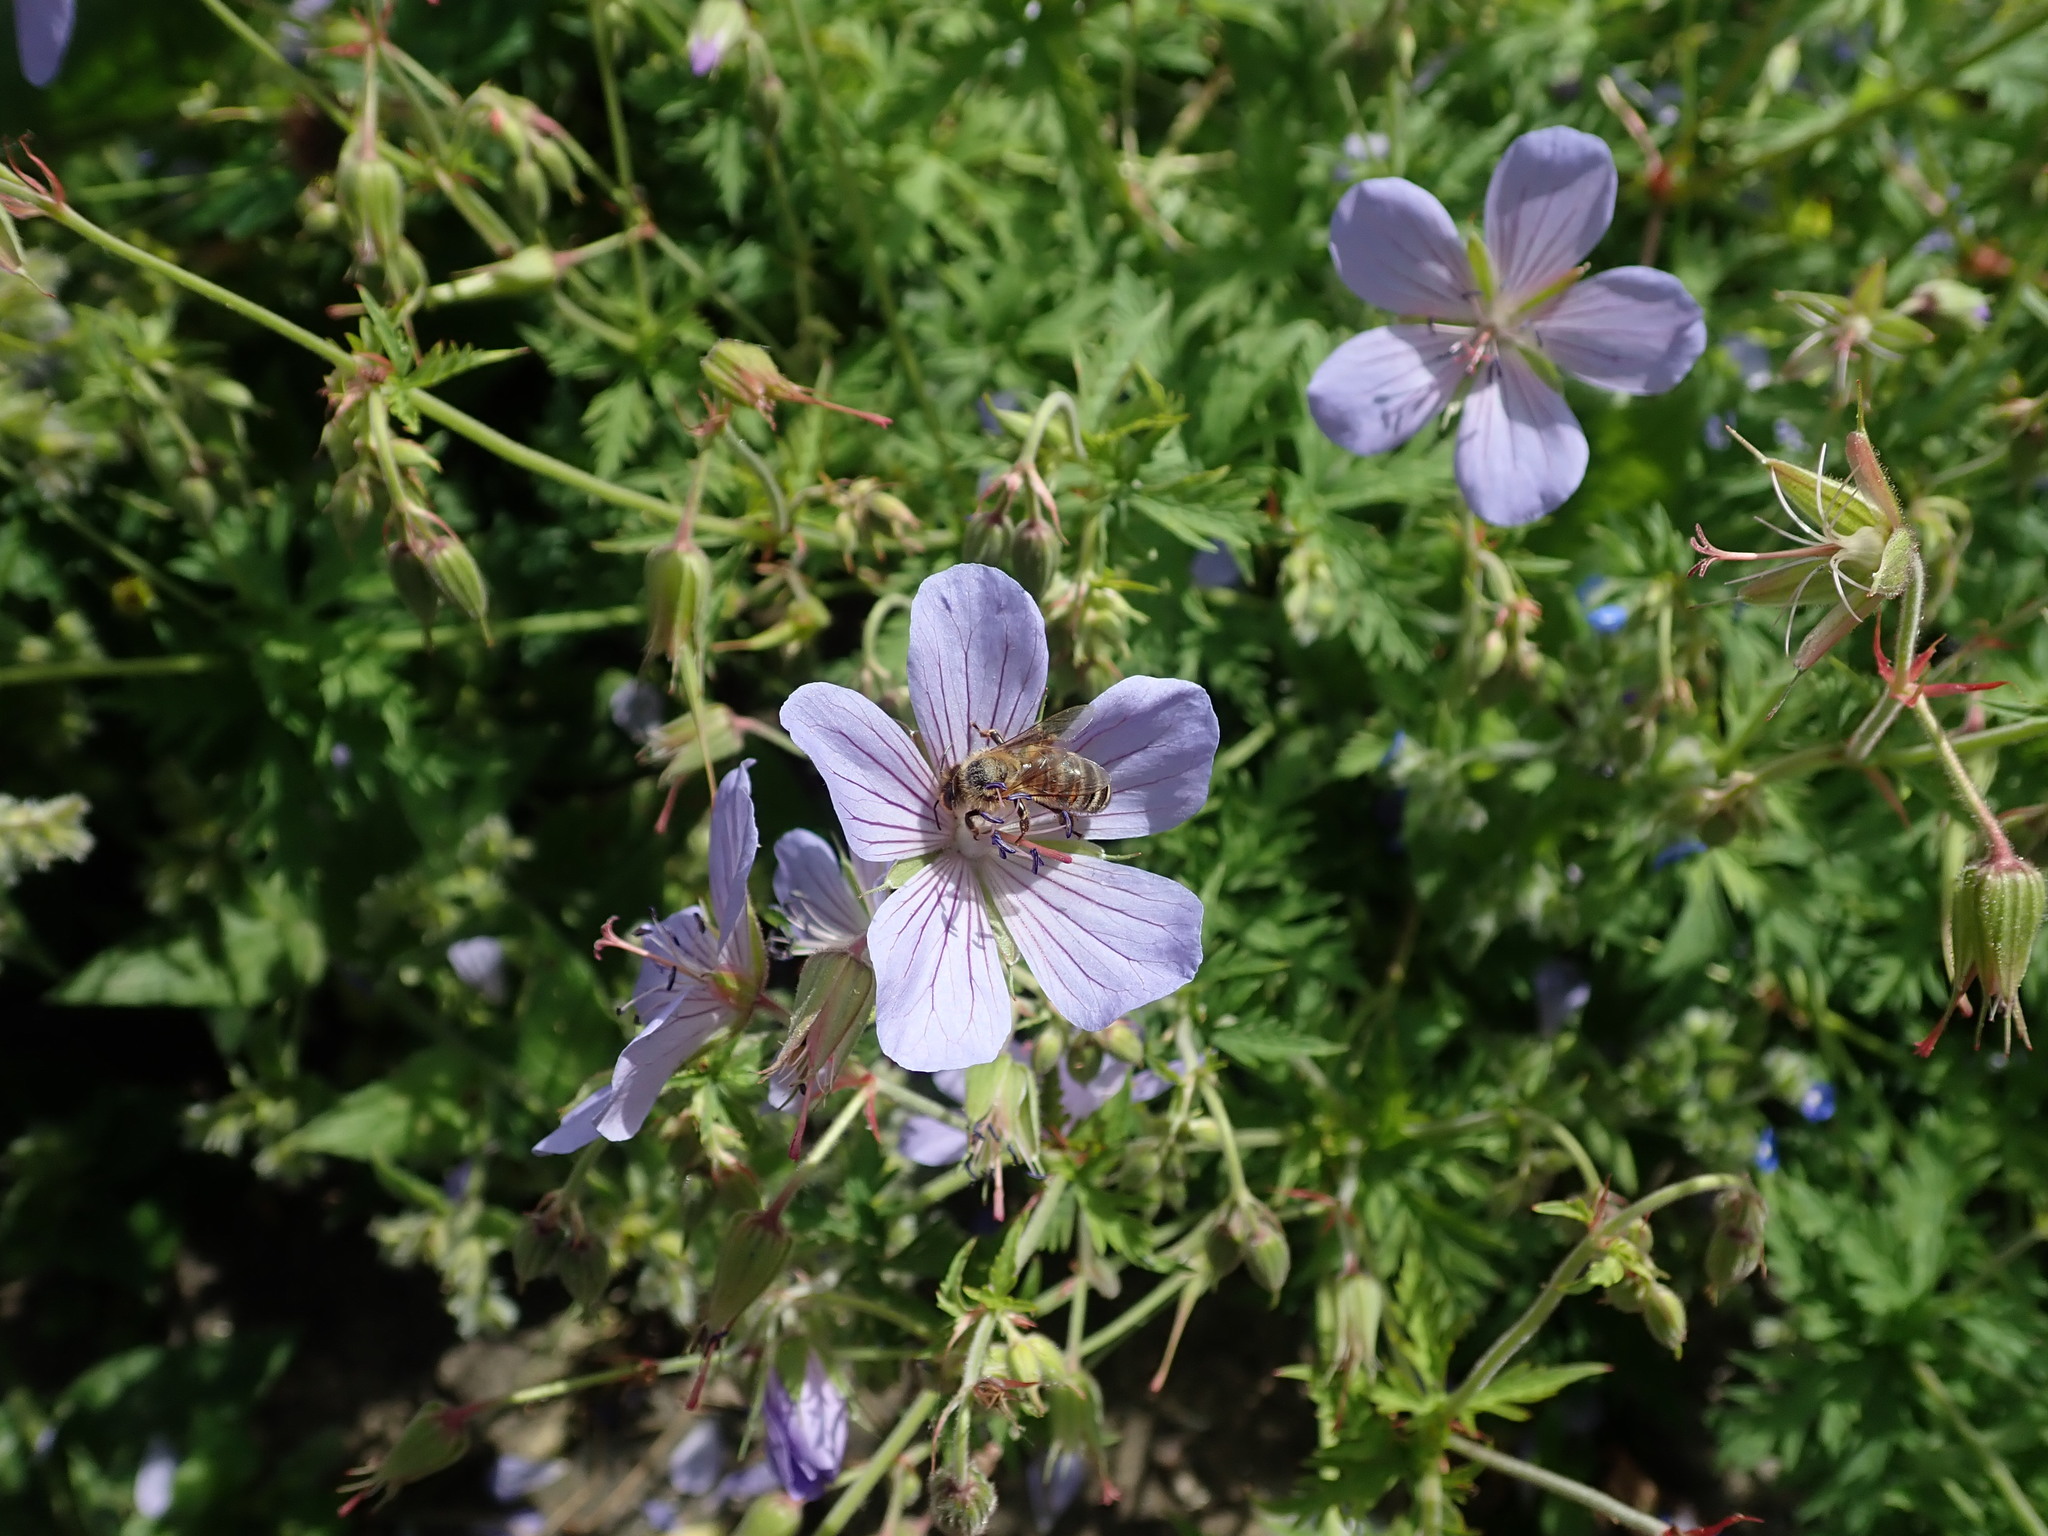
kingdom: Animalia
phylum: Arthropoda
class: Insecta
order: Hymenoptera
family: Apidae
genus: Apis
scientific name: Apis mellifera
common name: Honey bee
